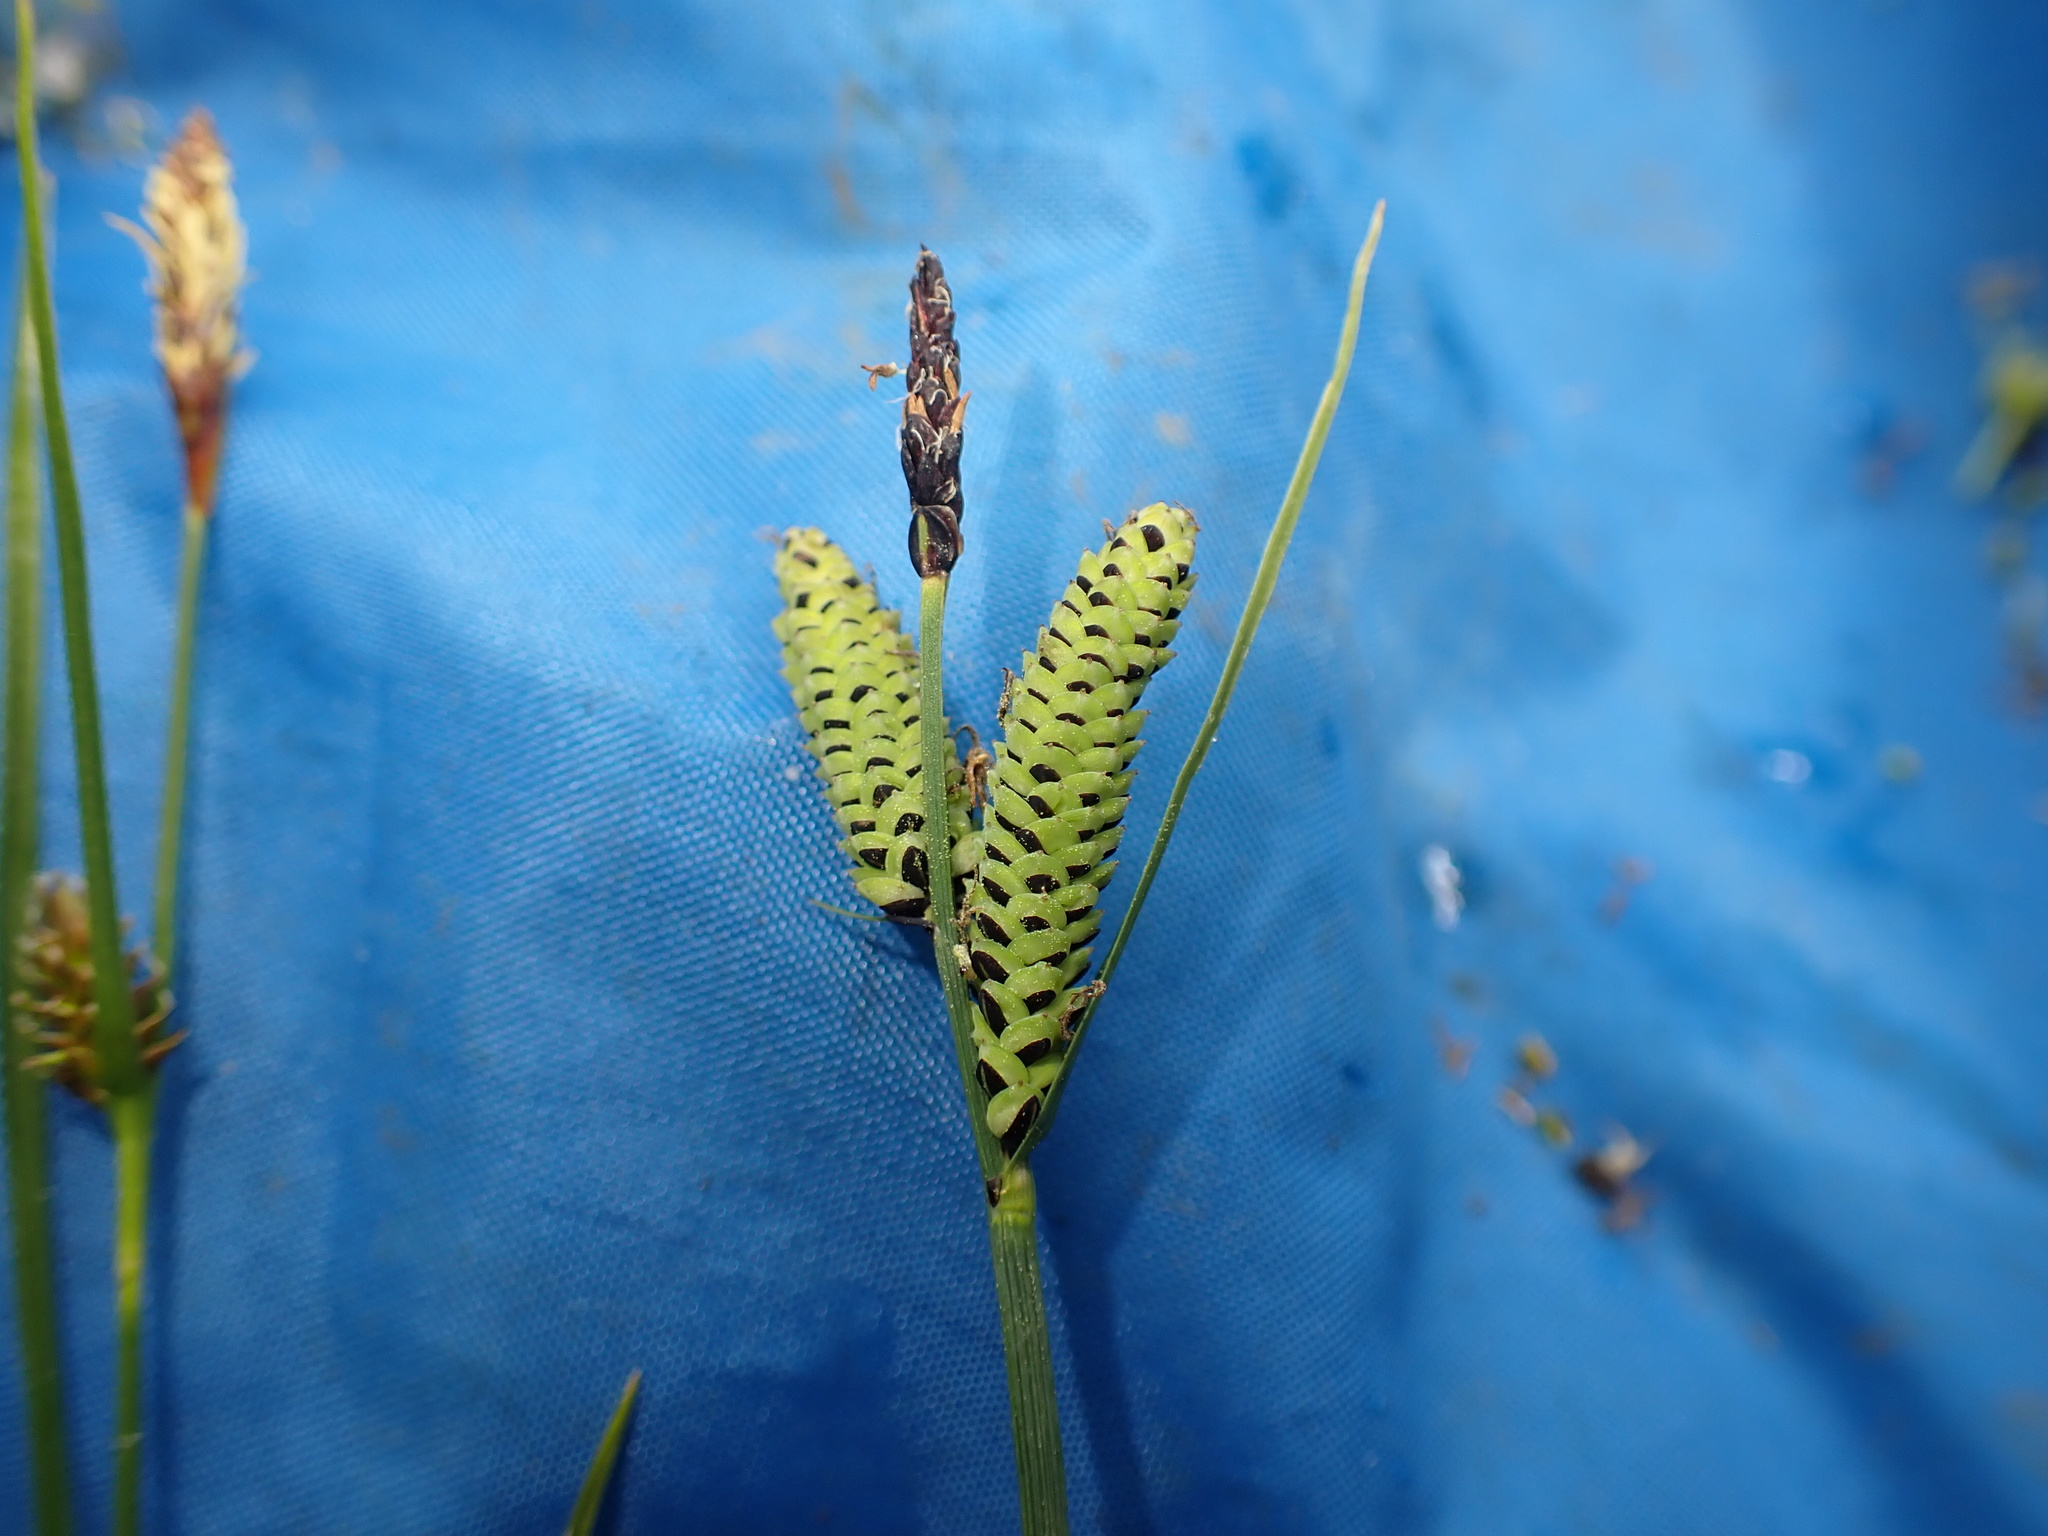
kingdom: Plantae
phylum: Tracheophyta
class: Liliopsida
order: Poales
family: Cyperaceae
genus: Carex
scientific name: Carex nigra
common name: Common sedge
